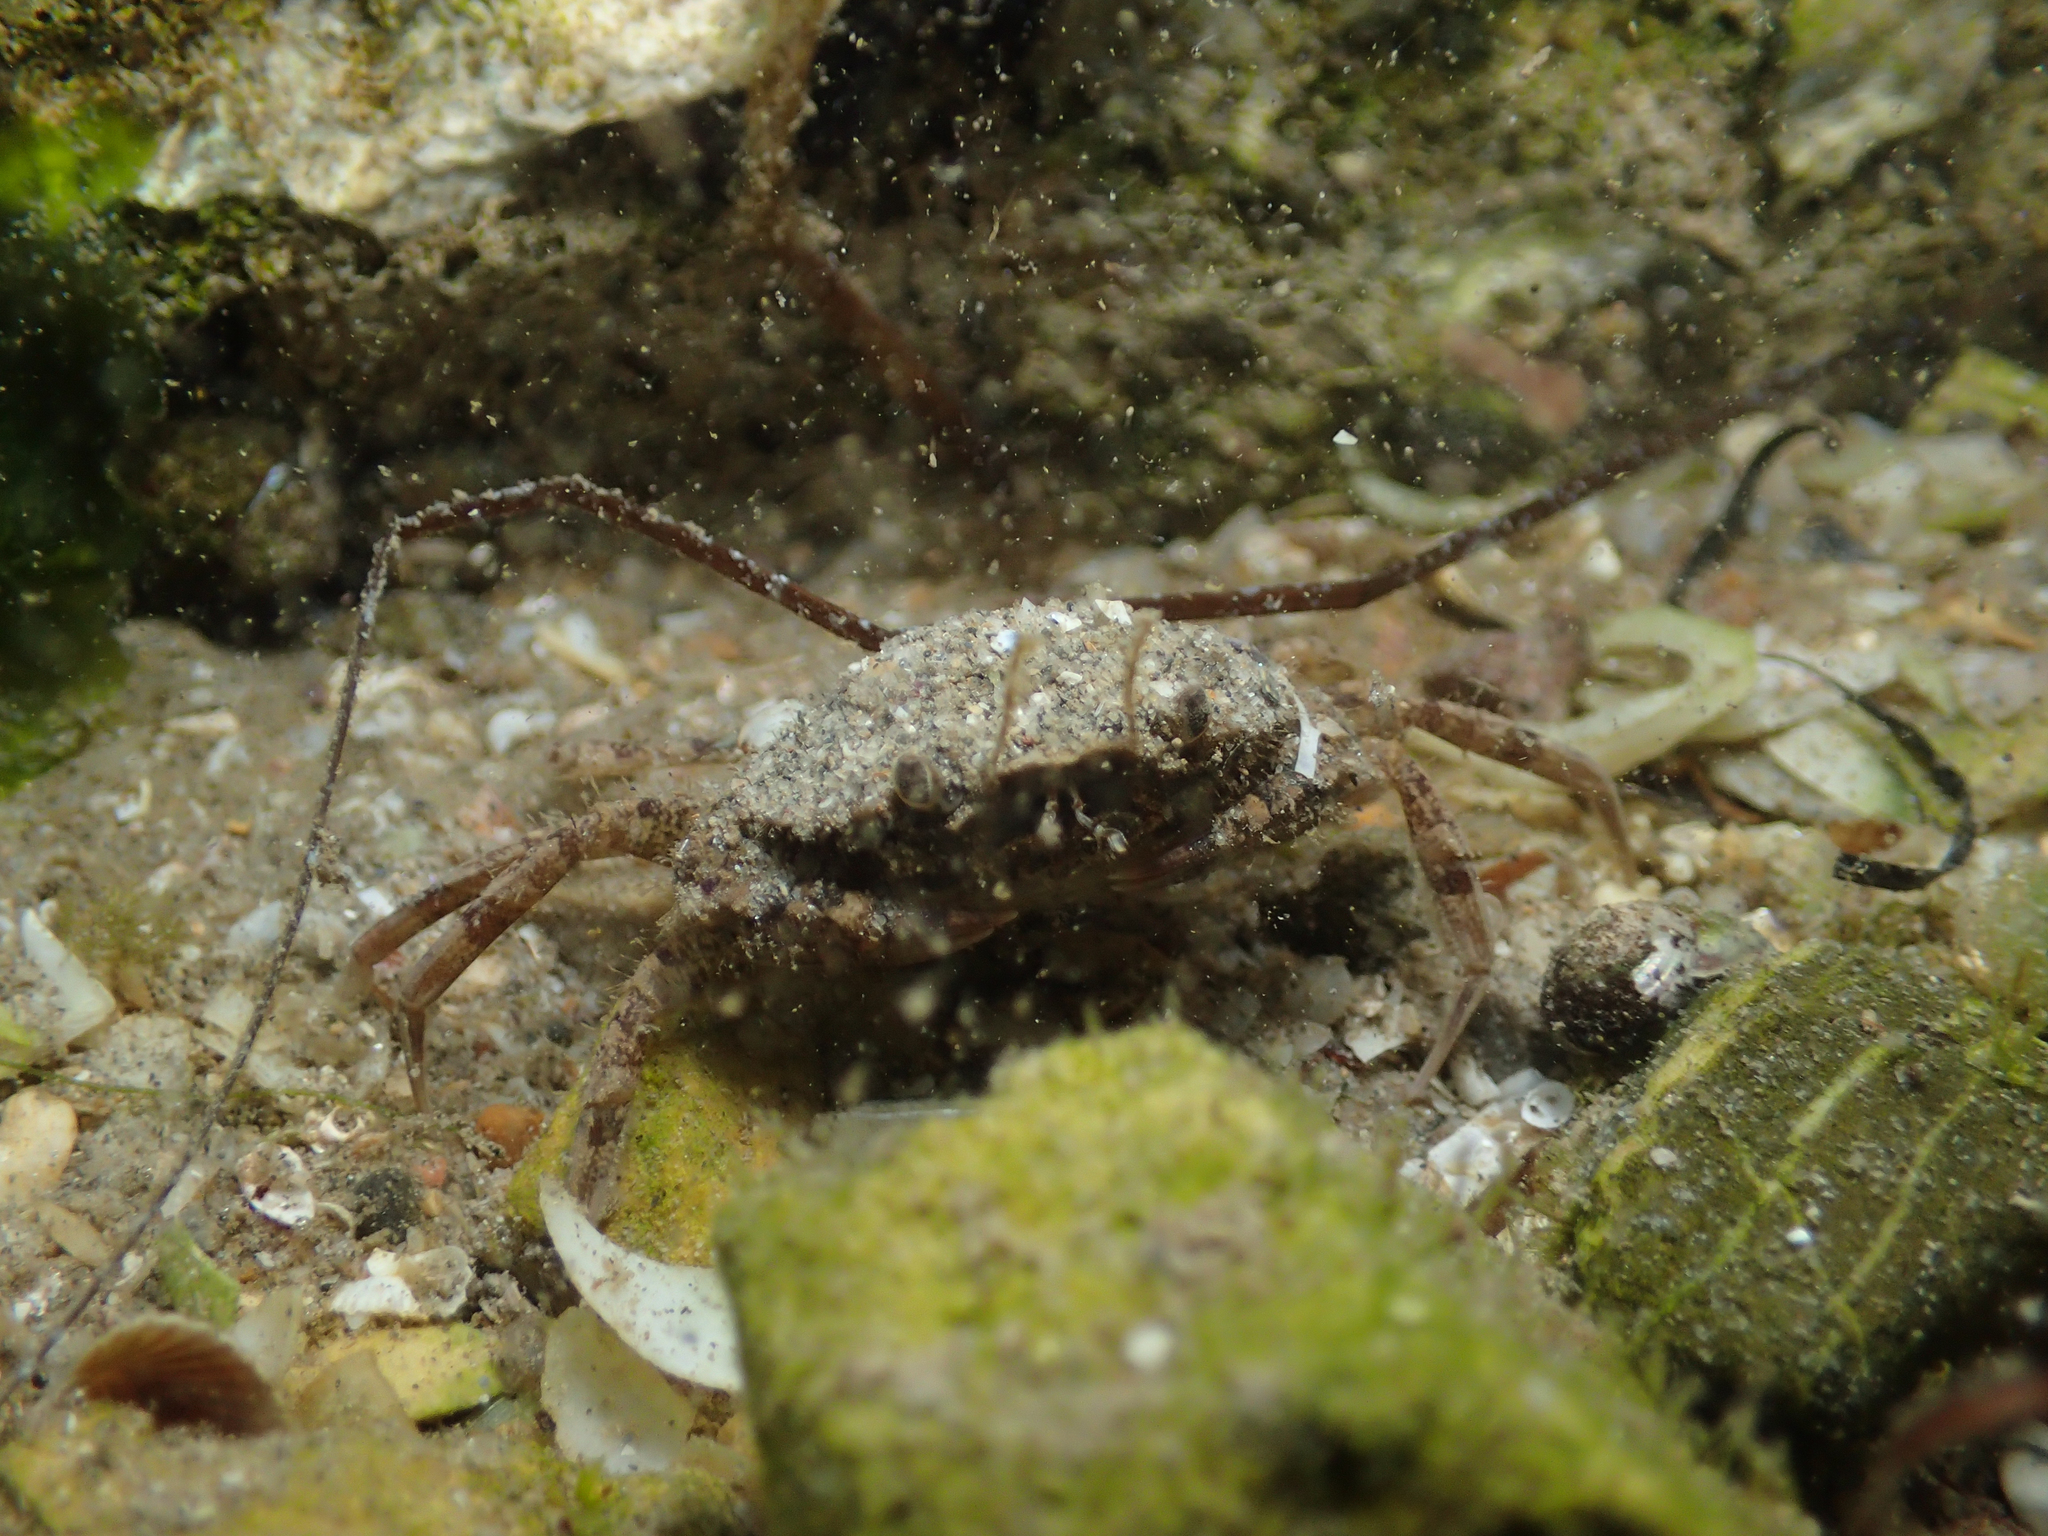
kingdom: Animalia
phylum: Arthropoda
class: Malacostraca
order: Decapoda
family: Carcinidae
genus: Carcinus
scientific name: Carcinus aestuarii
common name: Mediterranean green crab
